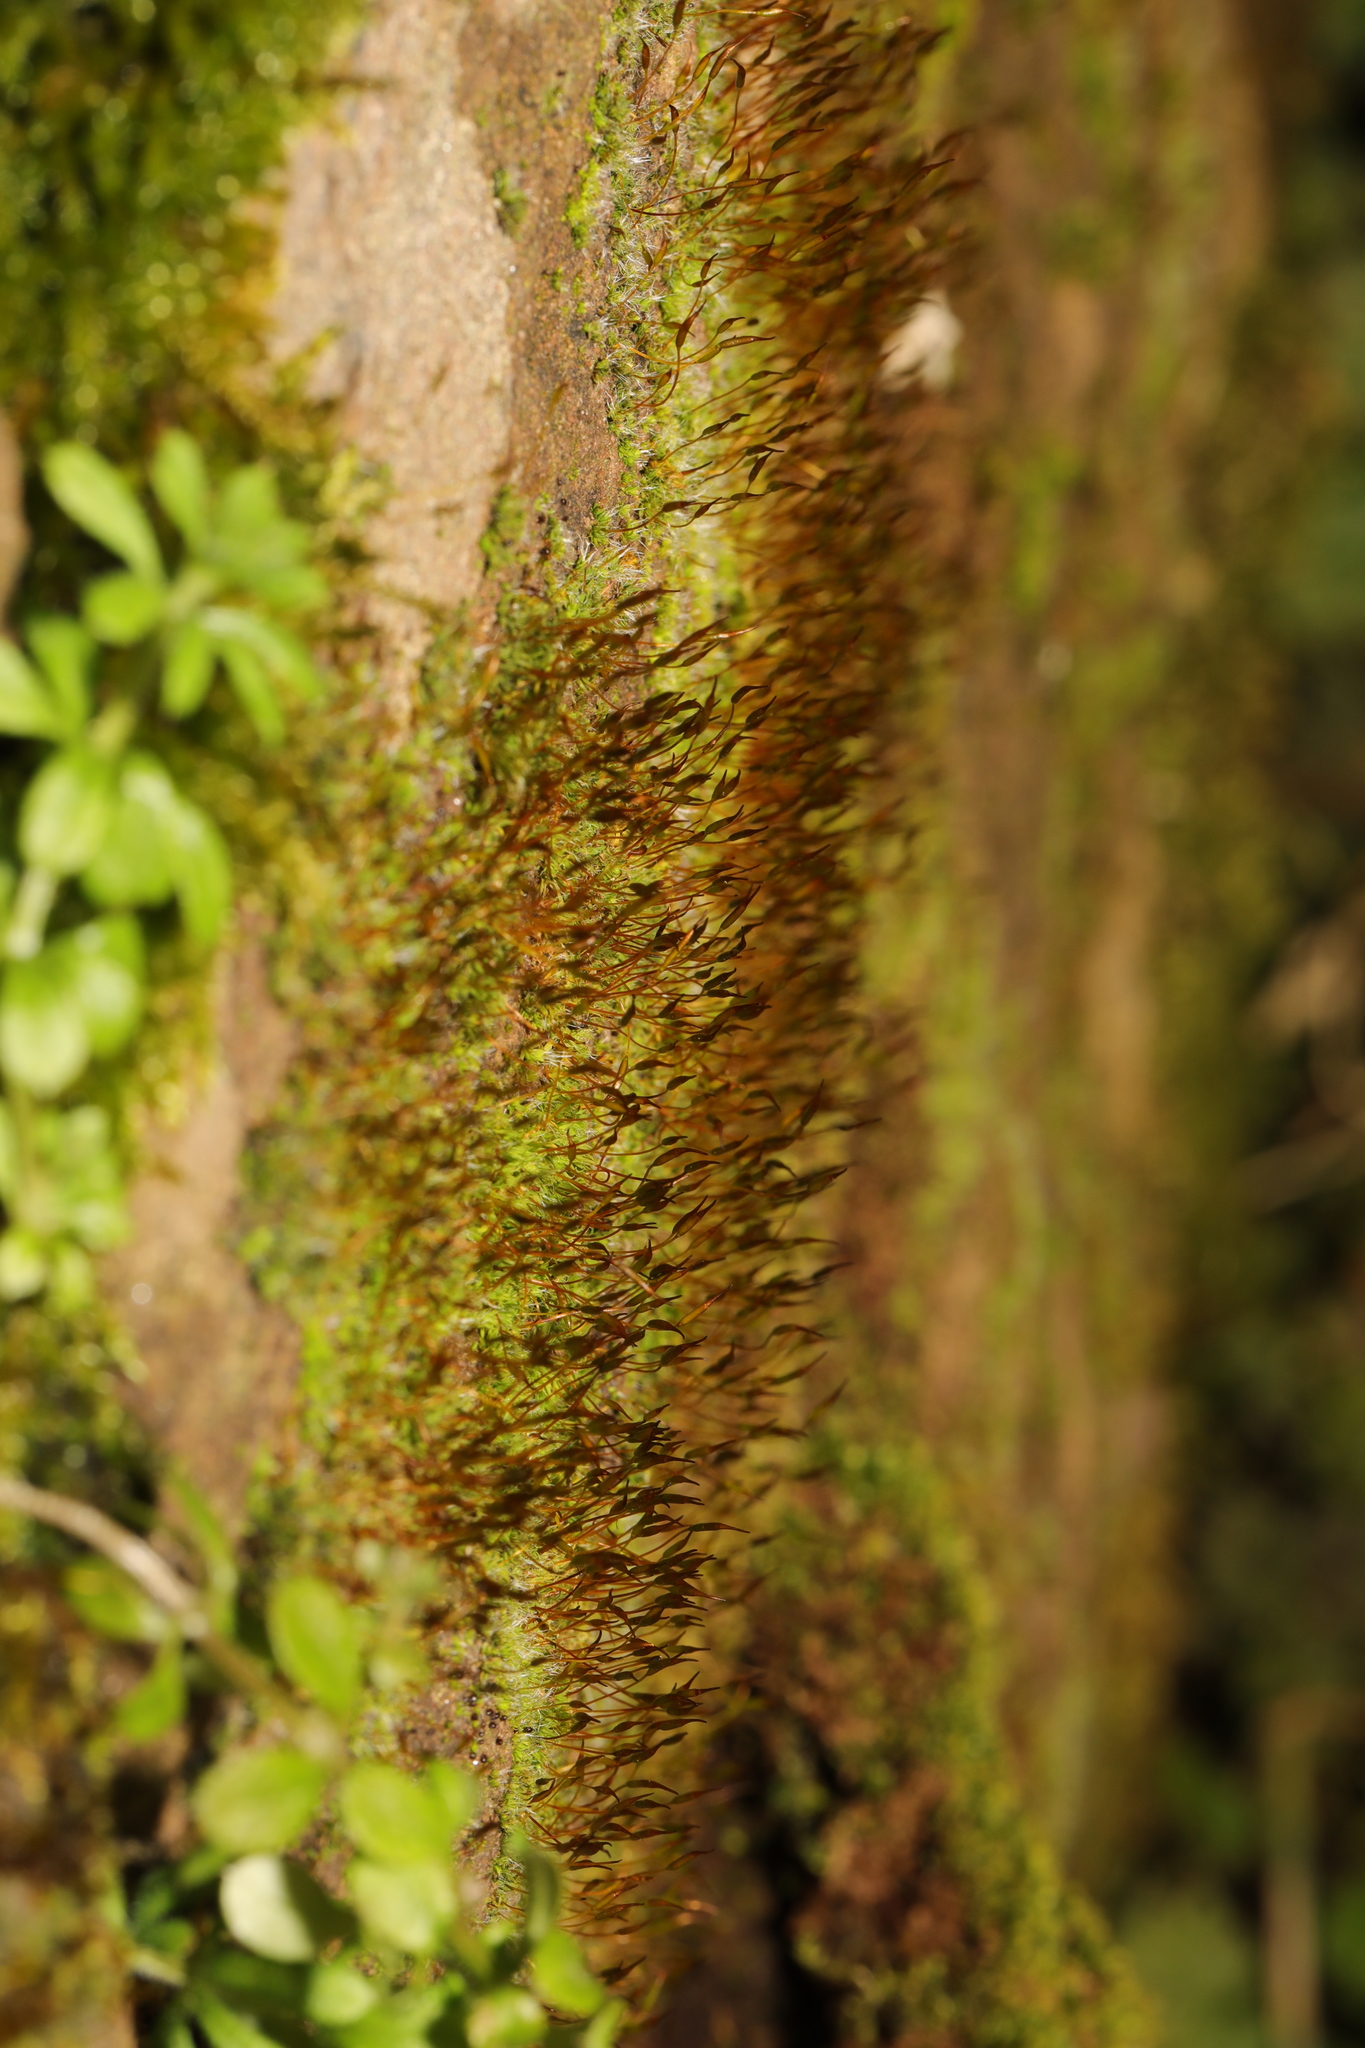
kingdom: Plantae
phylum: Bryophyta
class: Bryopsida
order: Pottiales
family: Pottiaceae
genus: Tortula
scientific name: Tortula muralis
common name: Wall screw-moss
